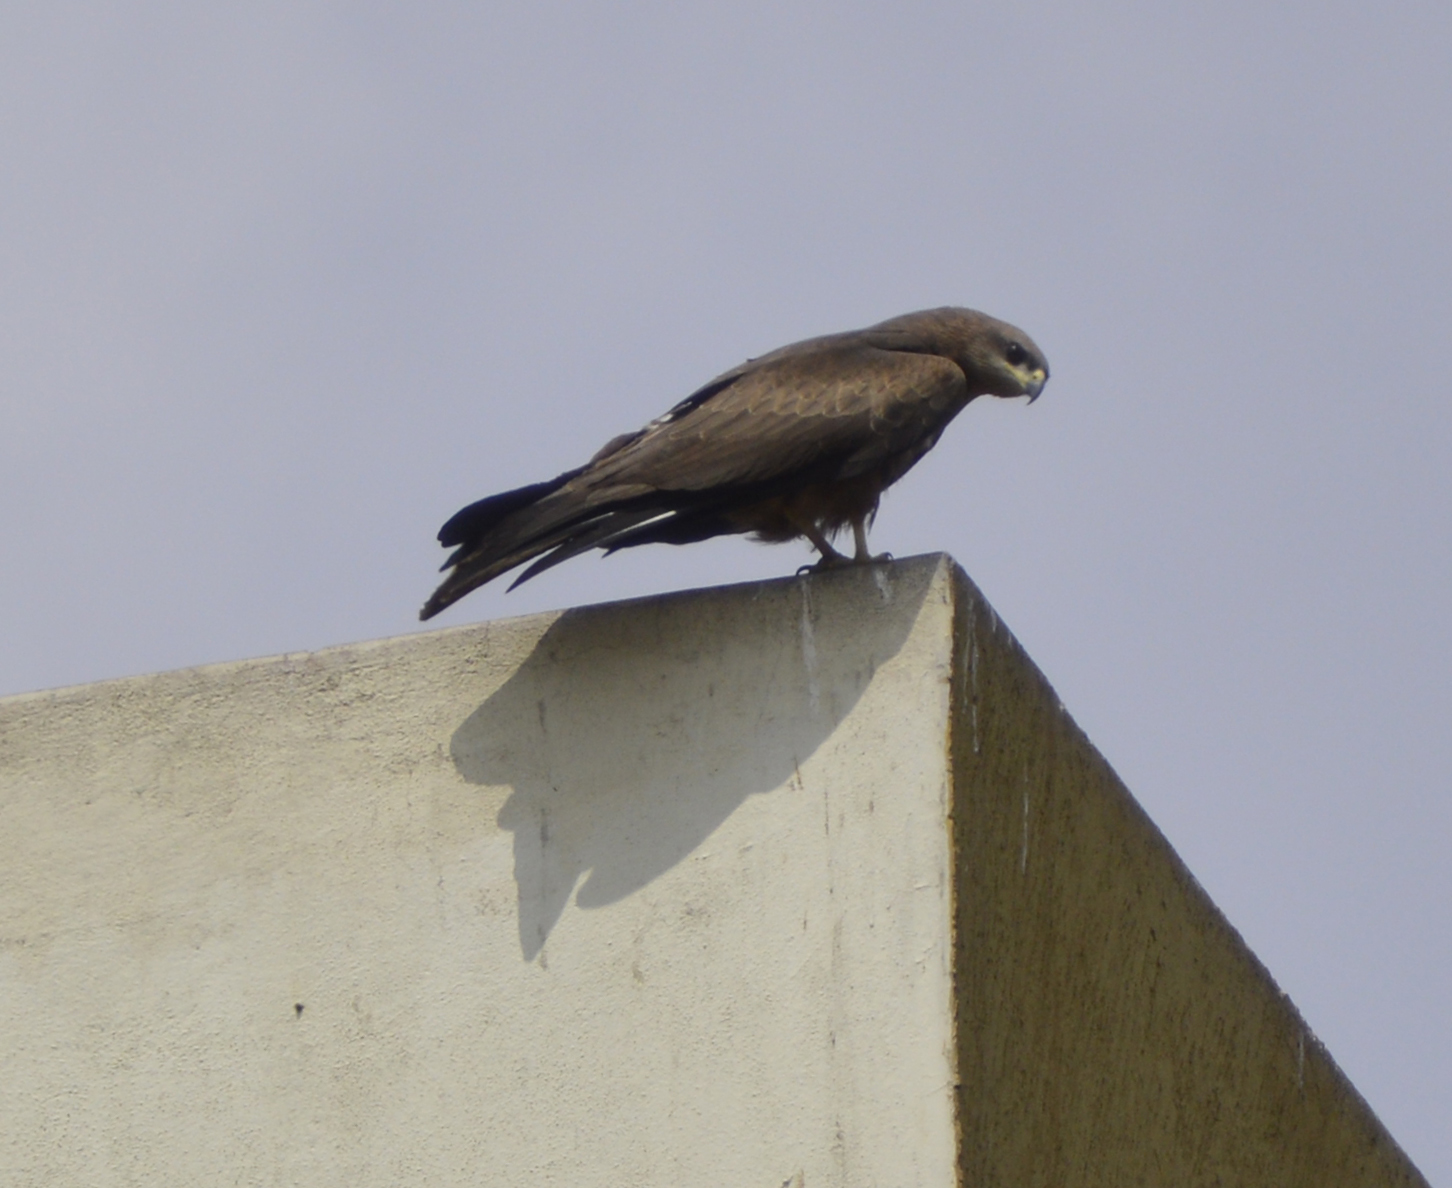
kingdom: Animalia
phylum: Chordata
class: Aves
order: Accipitriformes
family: Accipitridae
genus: Milvus
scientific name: Milvus migrans
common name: Black kite
